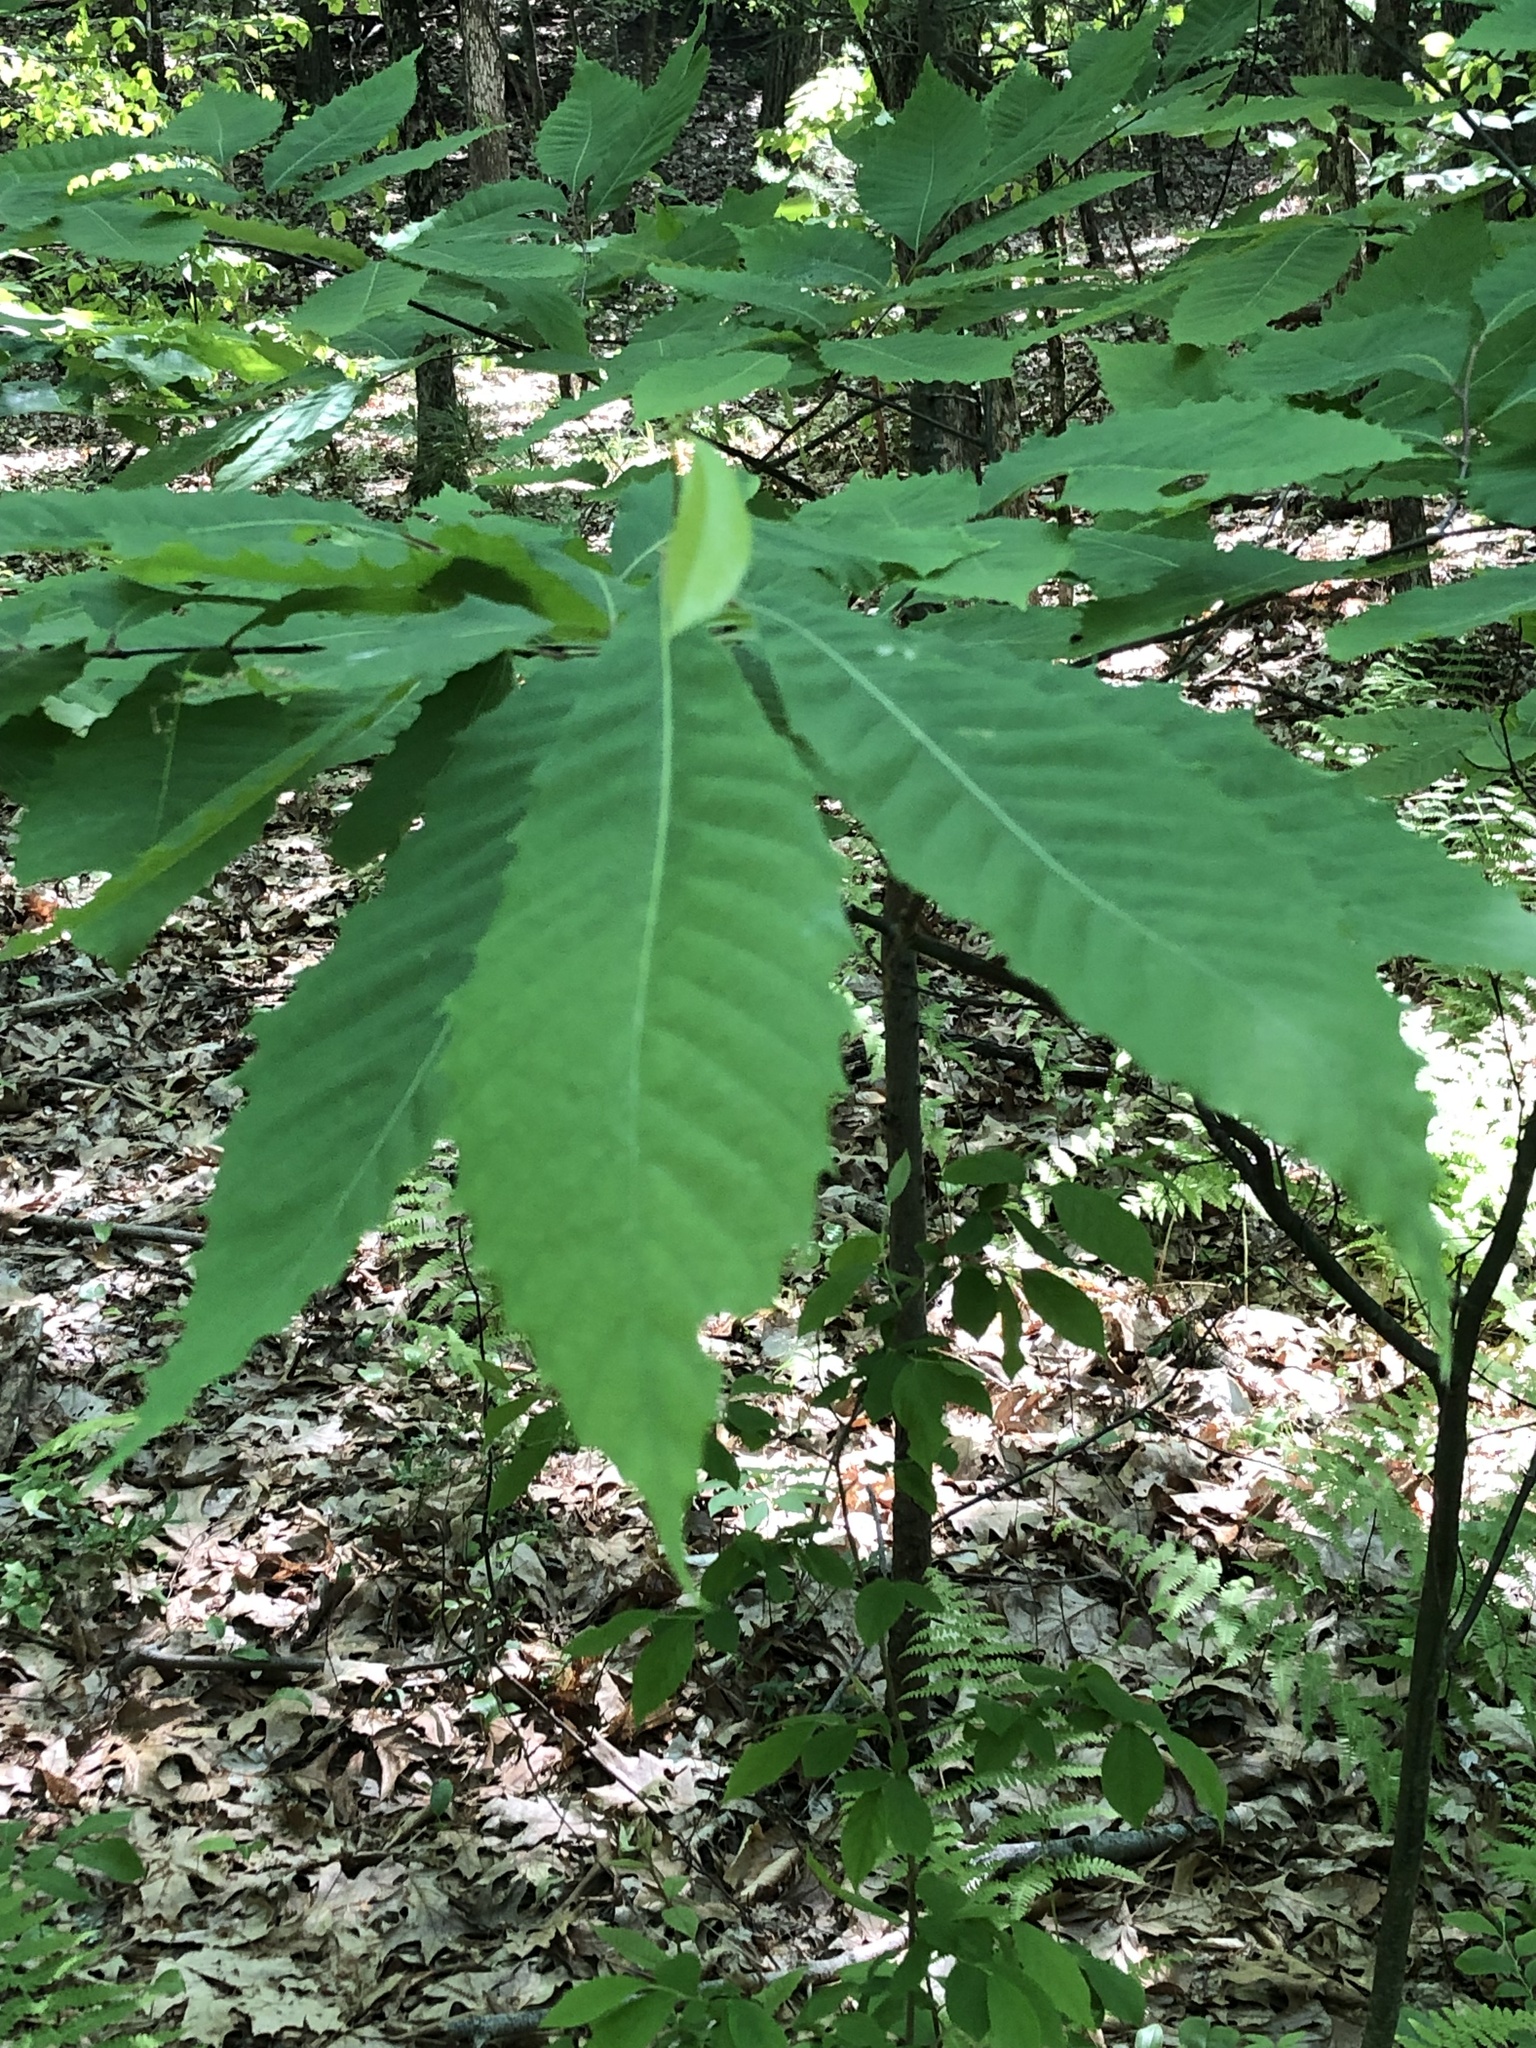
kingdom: Plantae
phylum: Tracheophyta
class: Magnoliopsida
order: Fagales
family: Fagaceae
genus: Castanea
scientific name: Castanea dentata
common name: American chestnut
